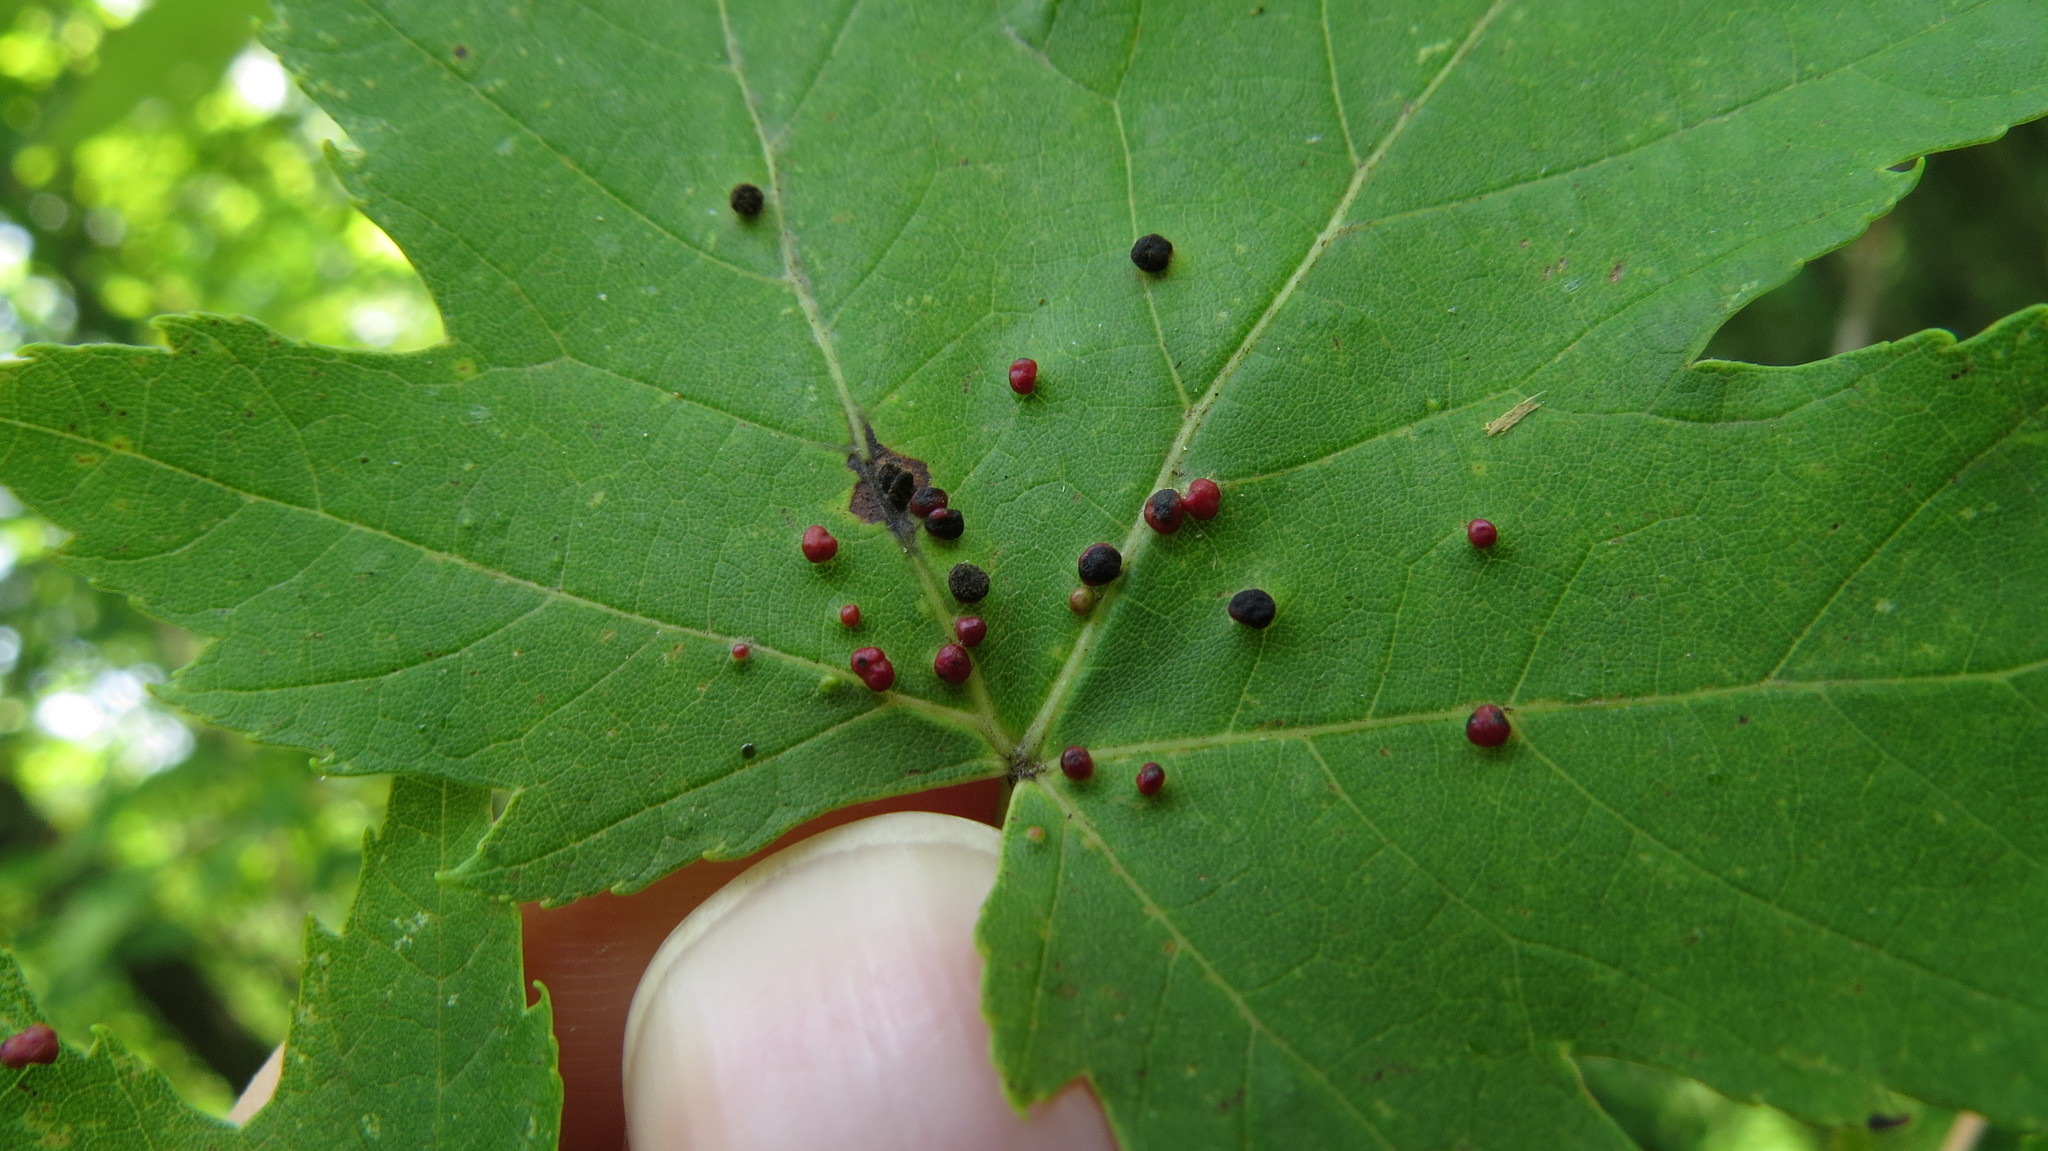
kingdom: Animalia
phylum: Arthropoda
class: Arachnida
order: Trombidiformes
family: Eriophyidae
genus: Vasates
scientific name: Vasates quadripedes
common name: Maple bladder gall mite
